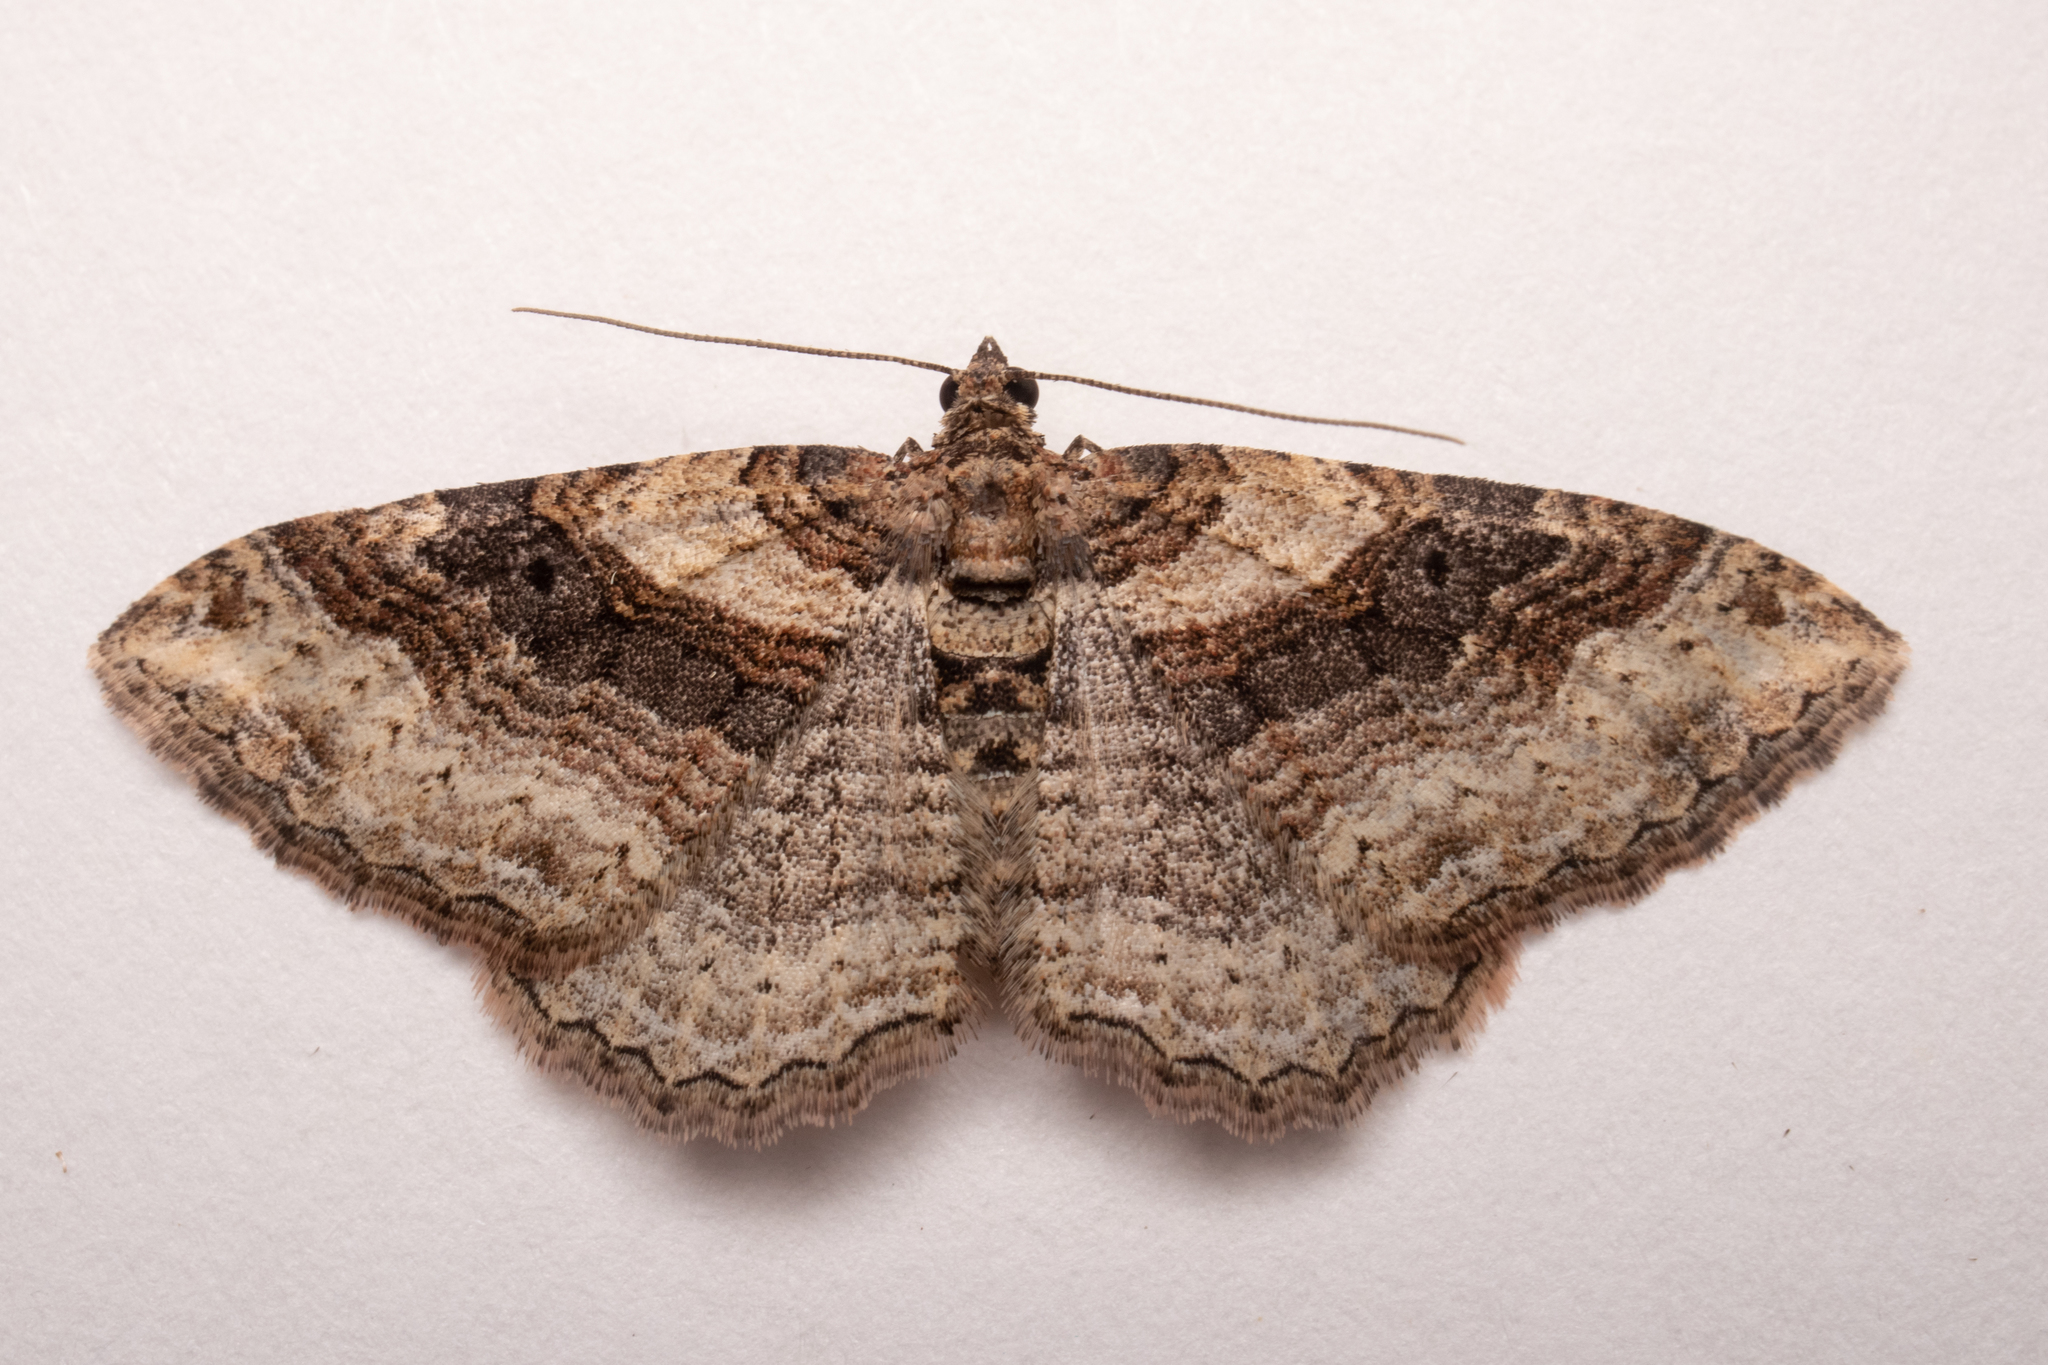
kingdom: Animalia
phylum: Arthropoda
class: Insecta
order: Lepidoptera
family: Geometridae
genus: Costaconvexa
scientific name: Costaconvexa centrostrigaria
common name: Bent-line carpet
